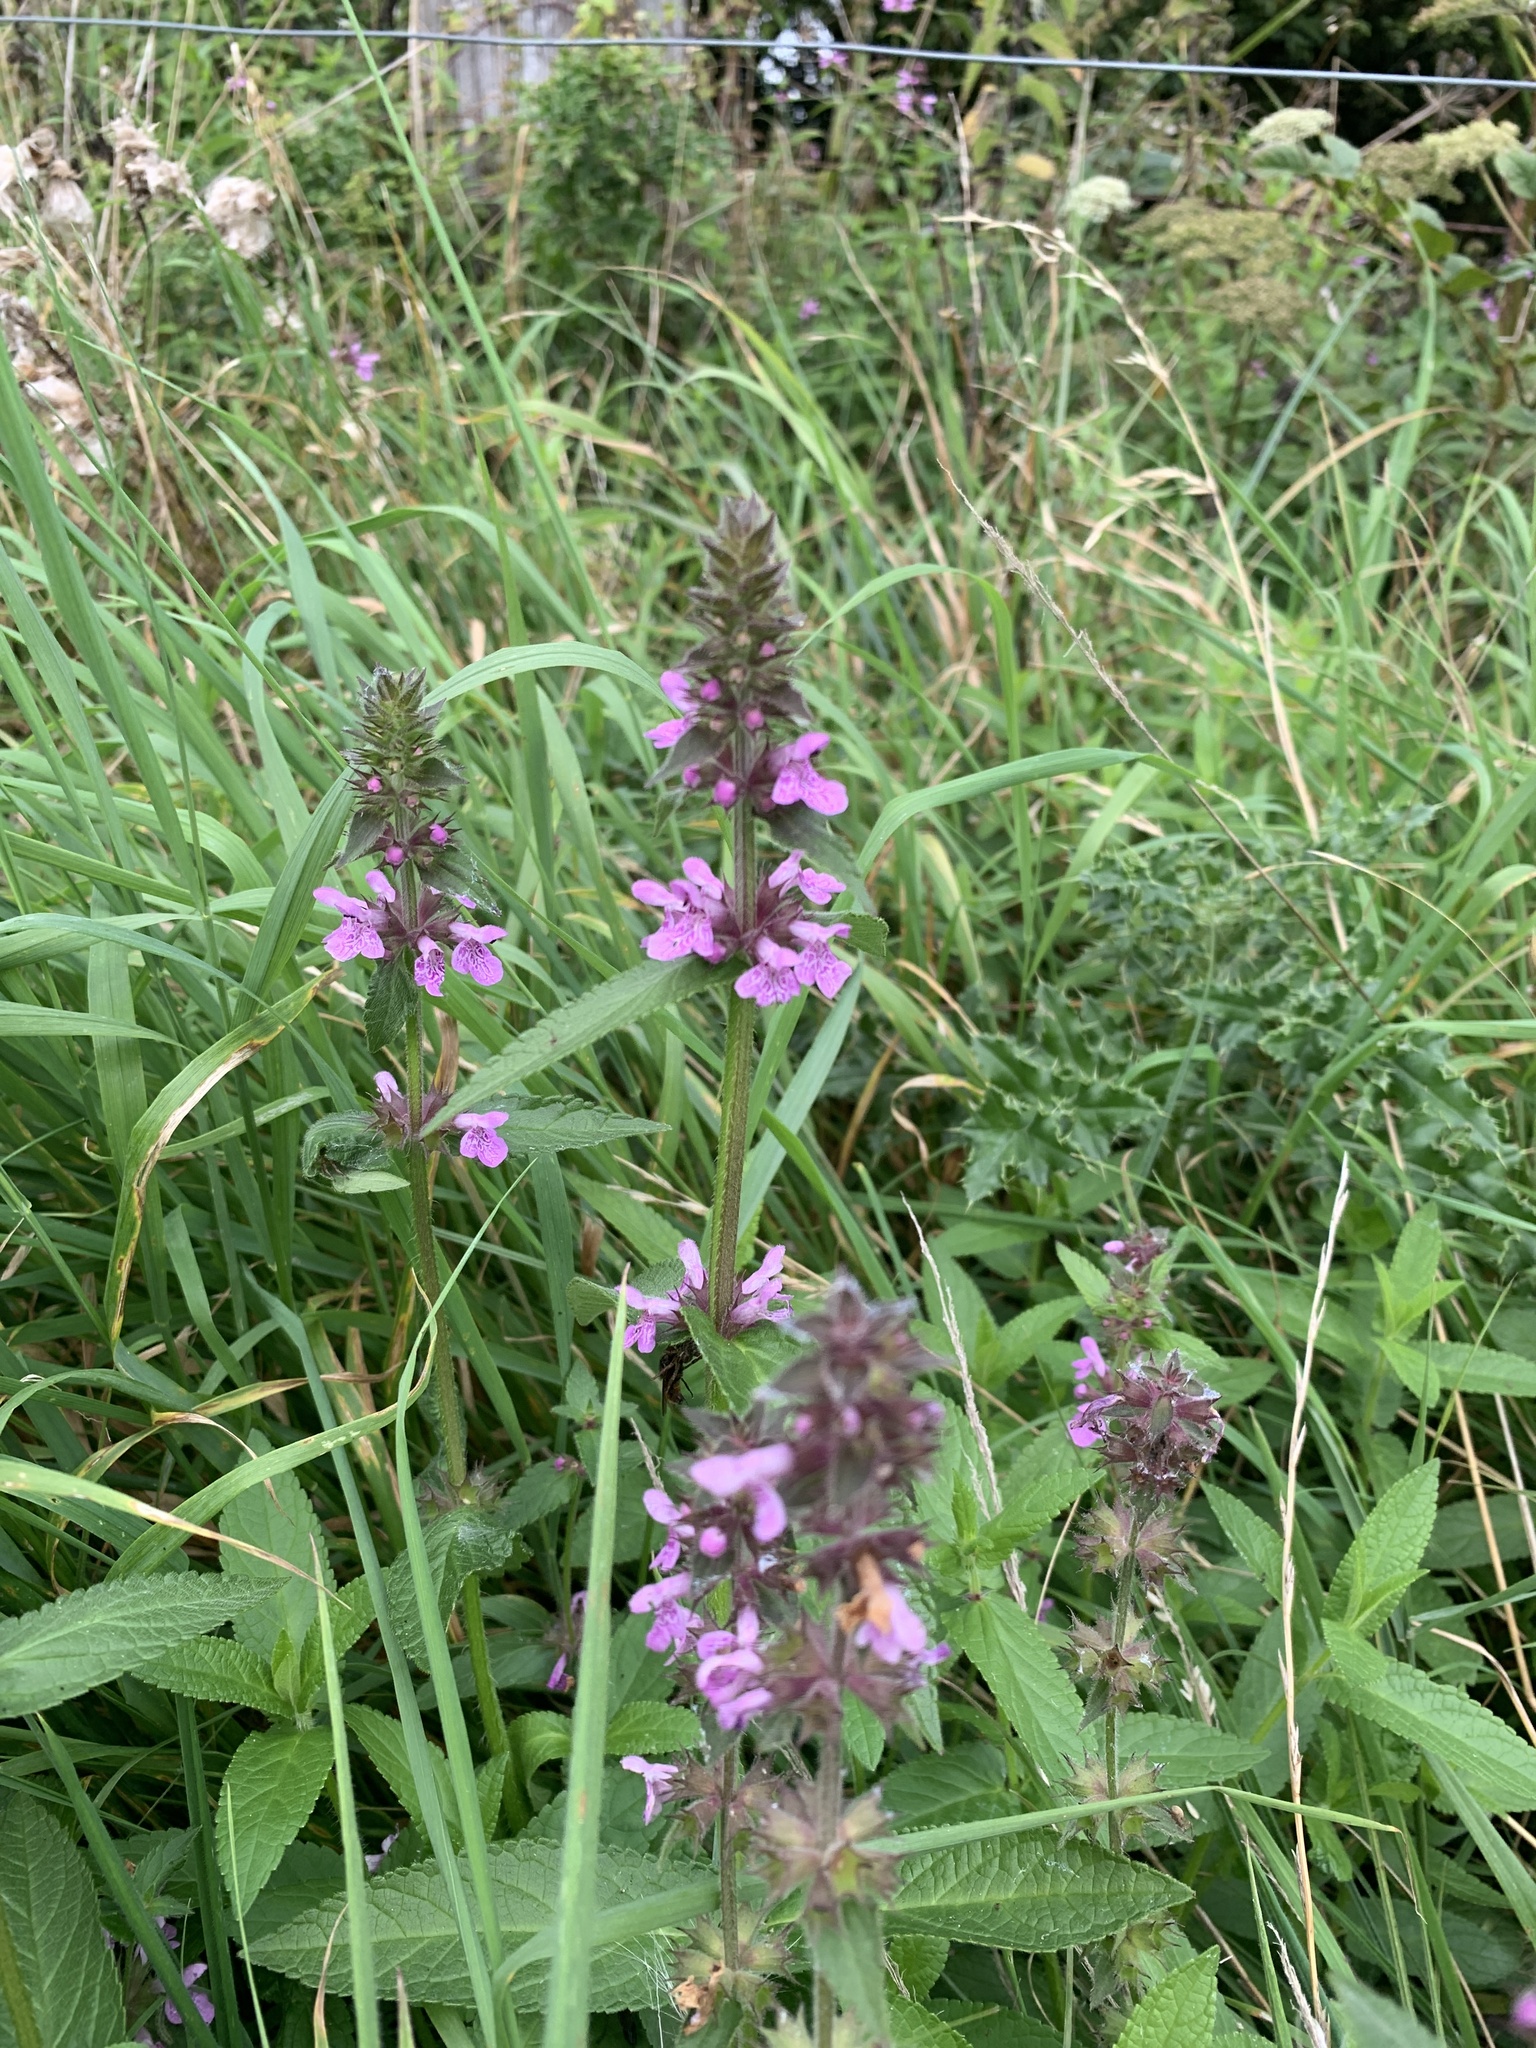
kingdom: Plantae
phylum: Tracheophyta
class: Magnoliopsida
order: Lamiales
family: Lamiaceae
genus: Stachys
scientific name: Stachys palustris
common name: Marsh woundwort
